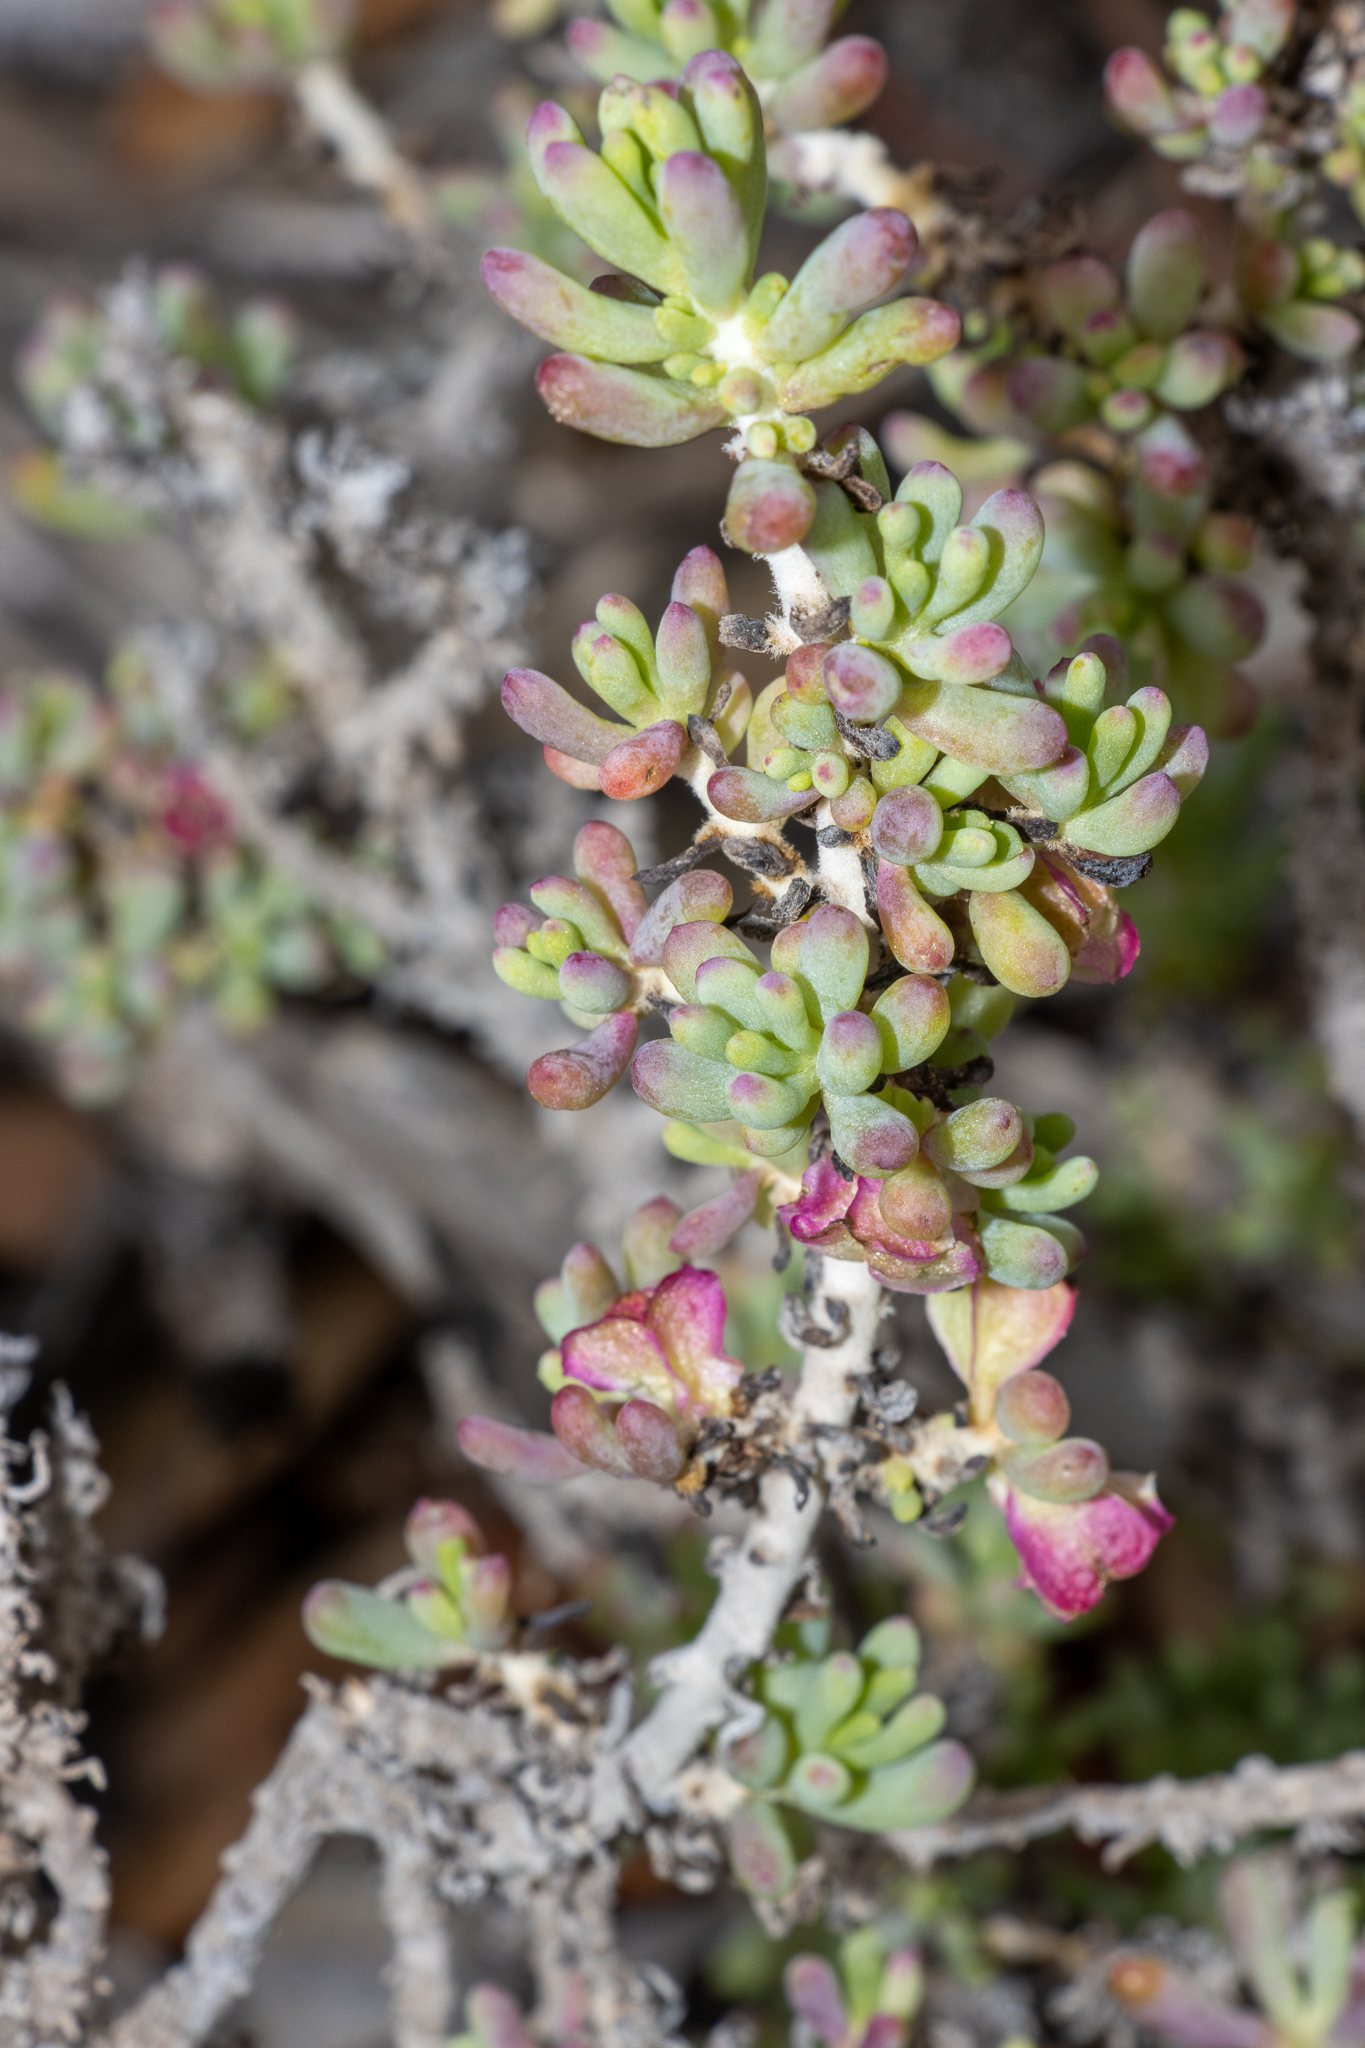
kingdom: Plantae
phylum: Tracheophyta
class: Magnoliopsida
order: Caryophyllales
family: Amaranthaceae
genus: Maireana
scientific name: Maireana erioclada
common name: Rosy bluebush
